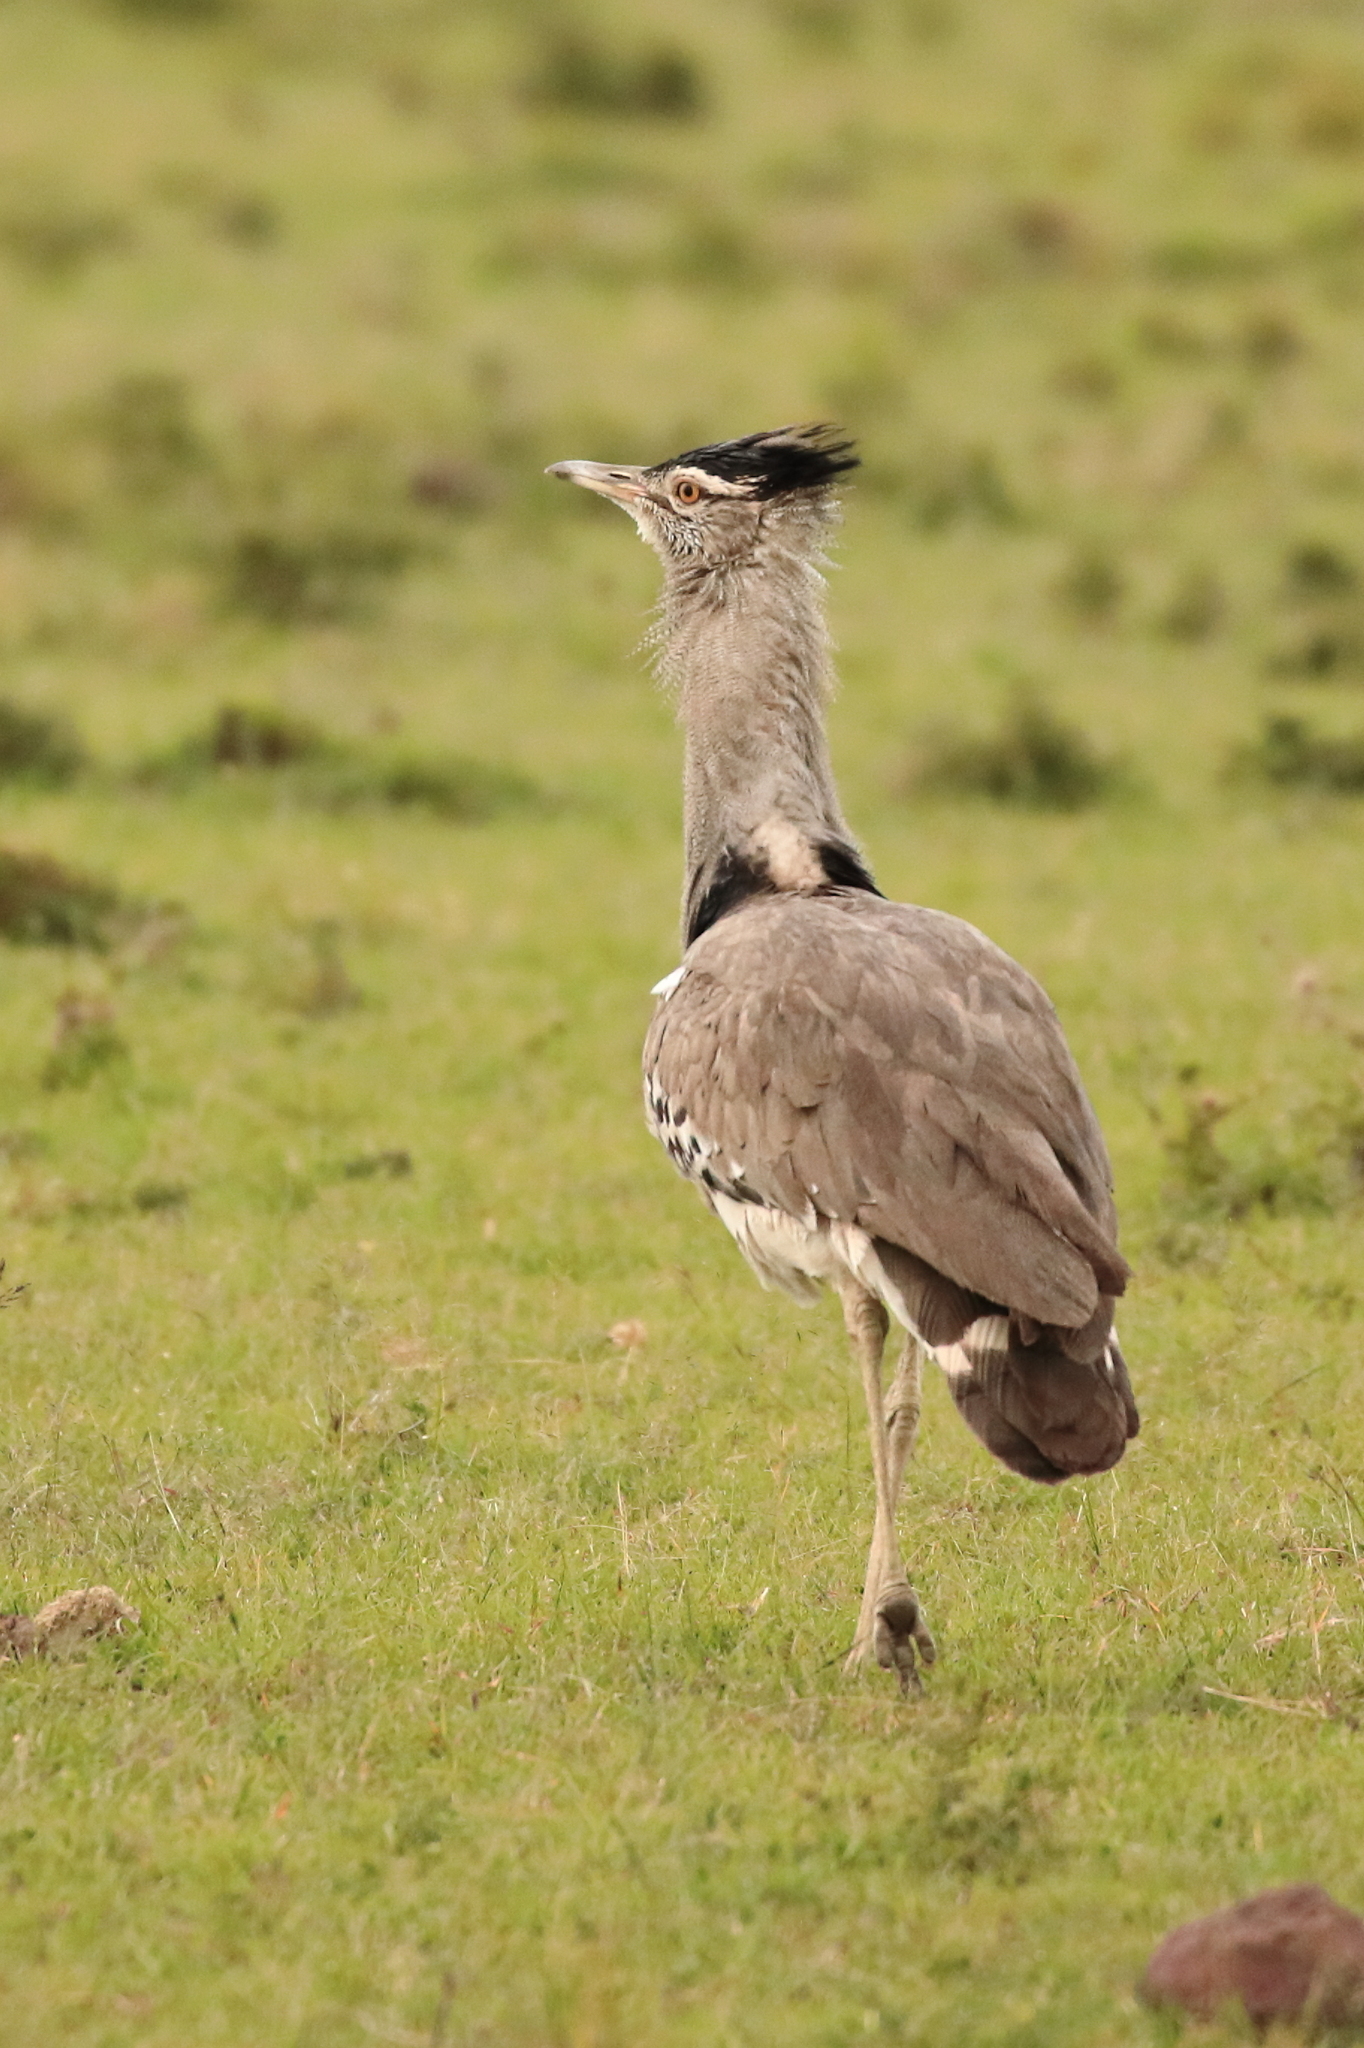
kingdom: Animalia
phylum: Chordata
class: Aves
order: Otidiformes
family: Otididae
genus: Ardeotis
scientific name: Ardeotis kori
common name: Kori bustard
